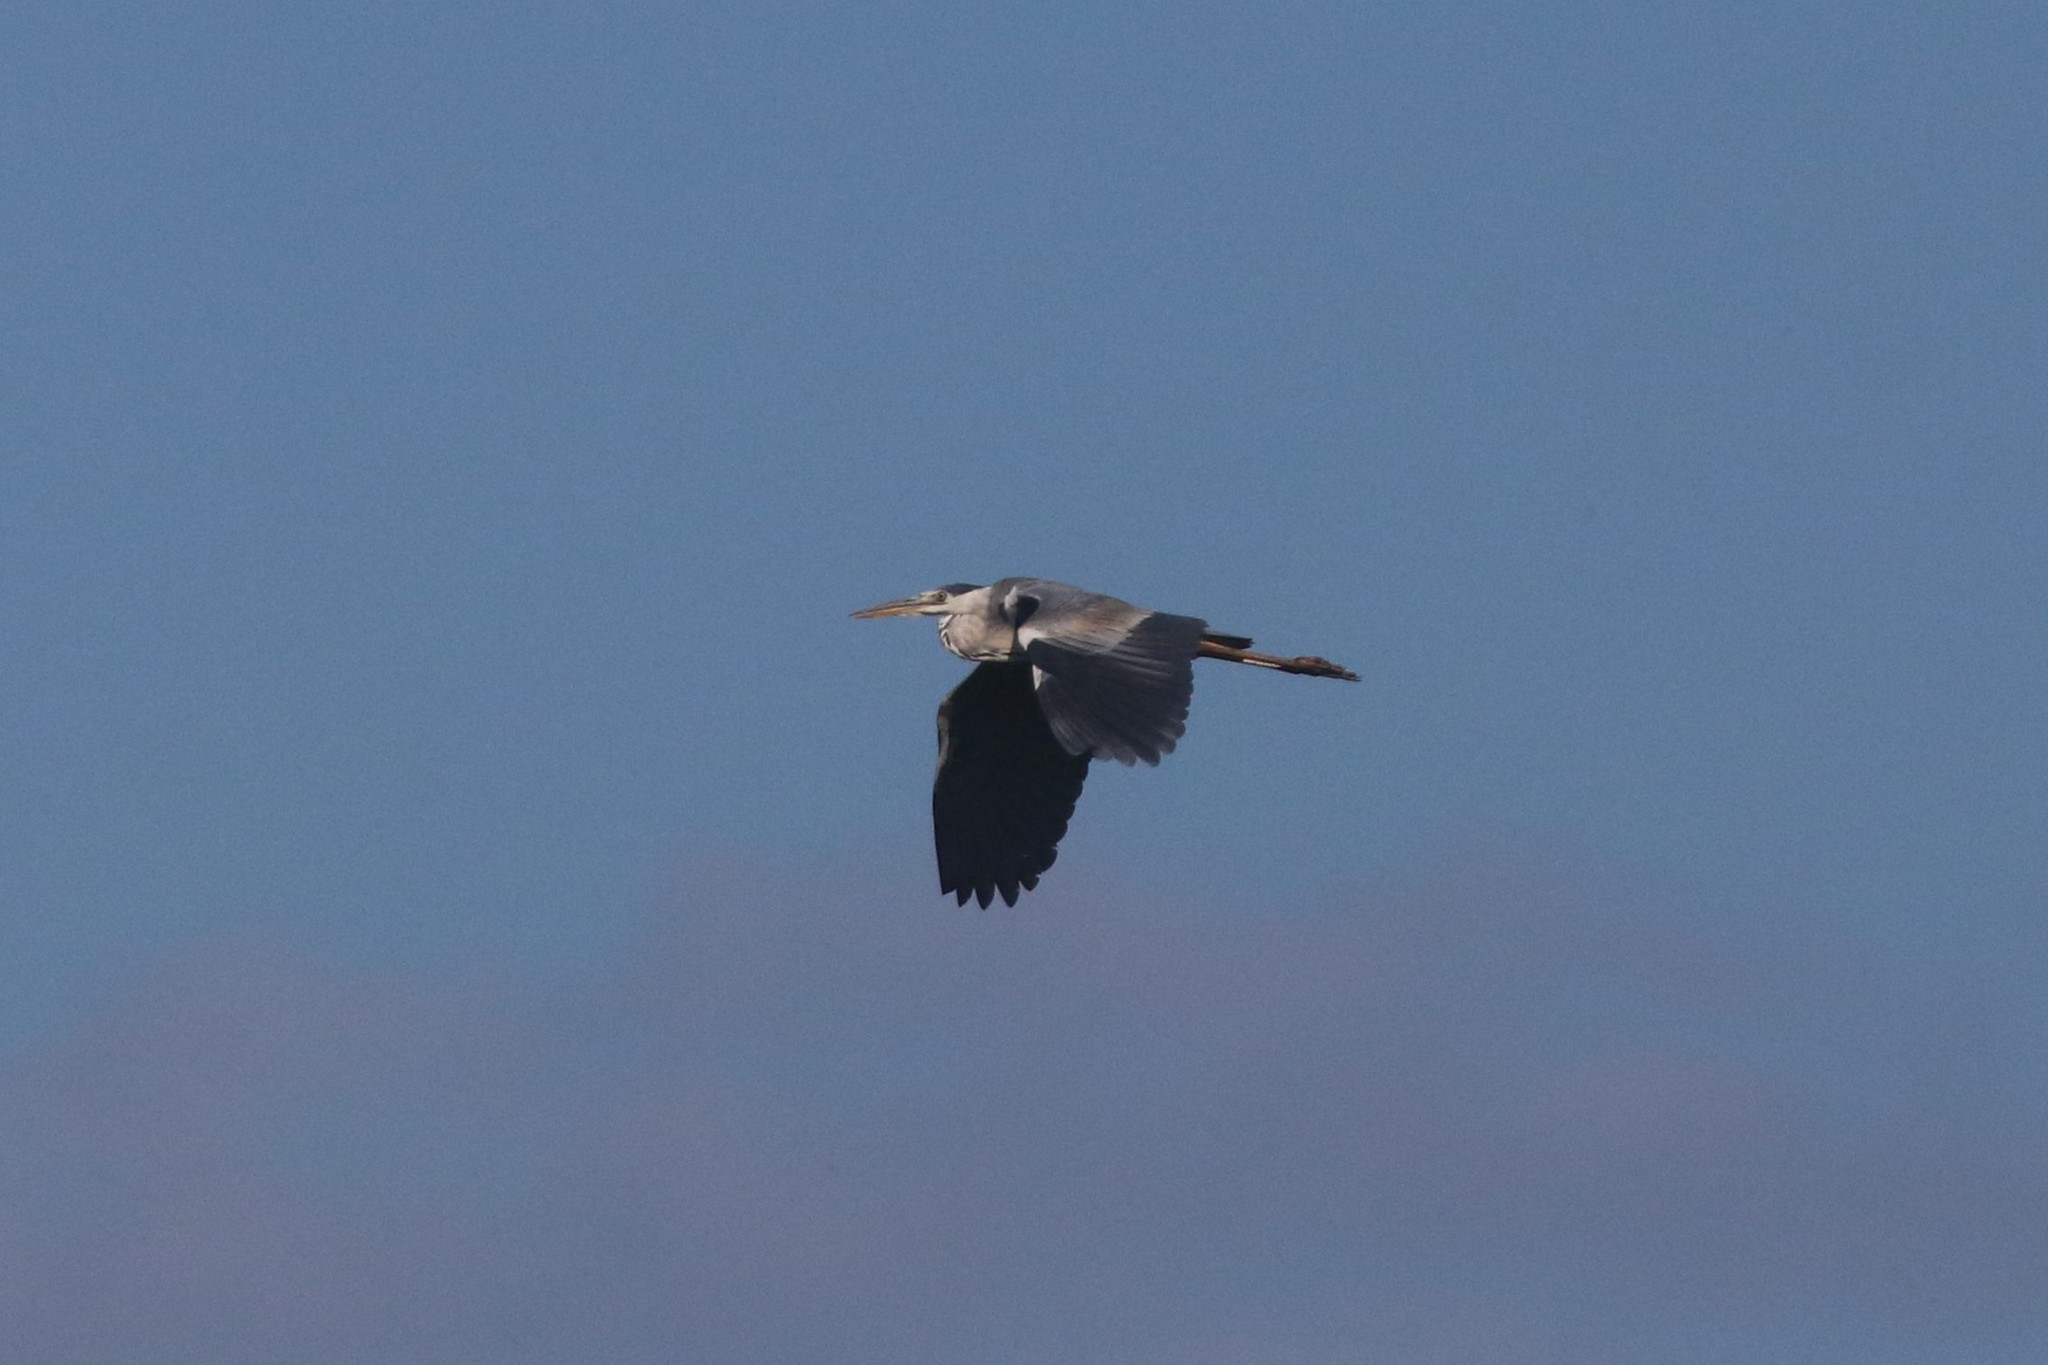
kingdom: Animalia
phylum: Chordata
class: Aves
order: Pelecaniformes
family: Ardeidae
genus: Ardea
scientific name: Ardea cinerea
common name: Grey heron
